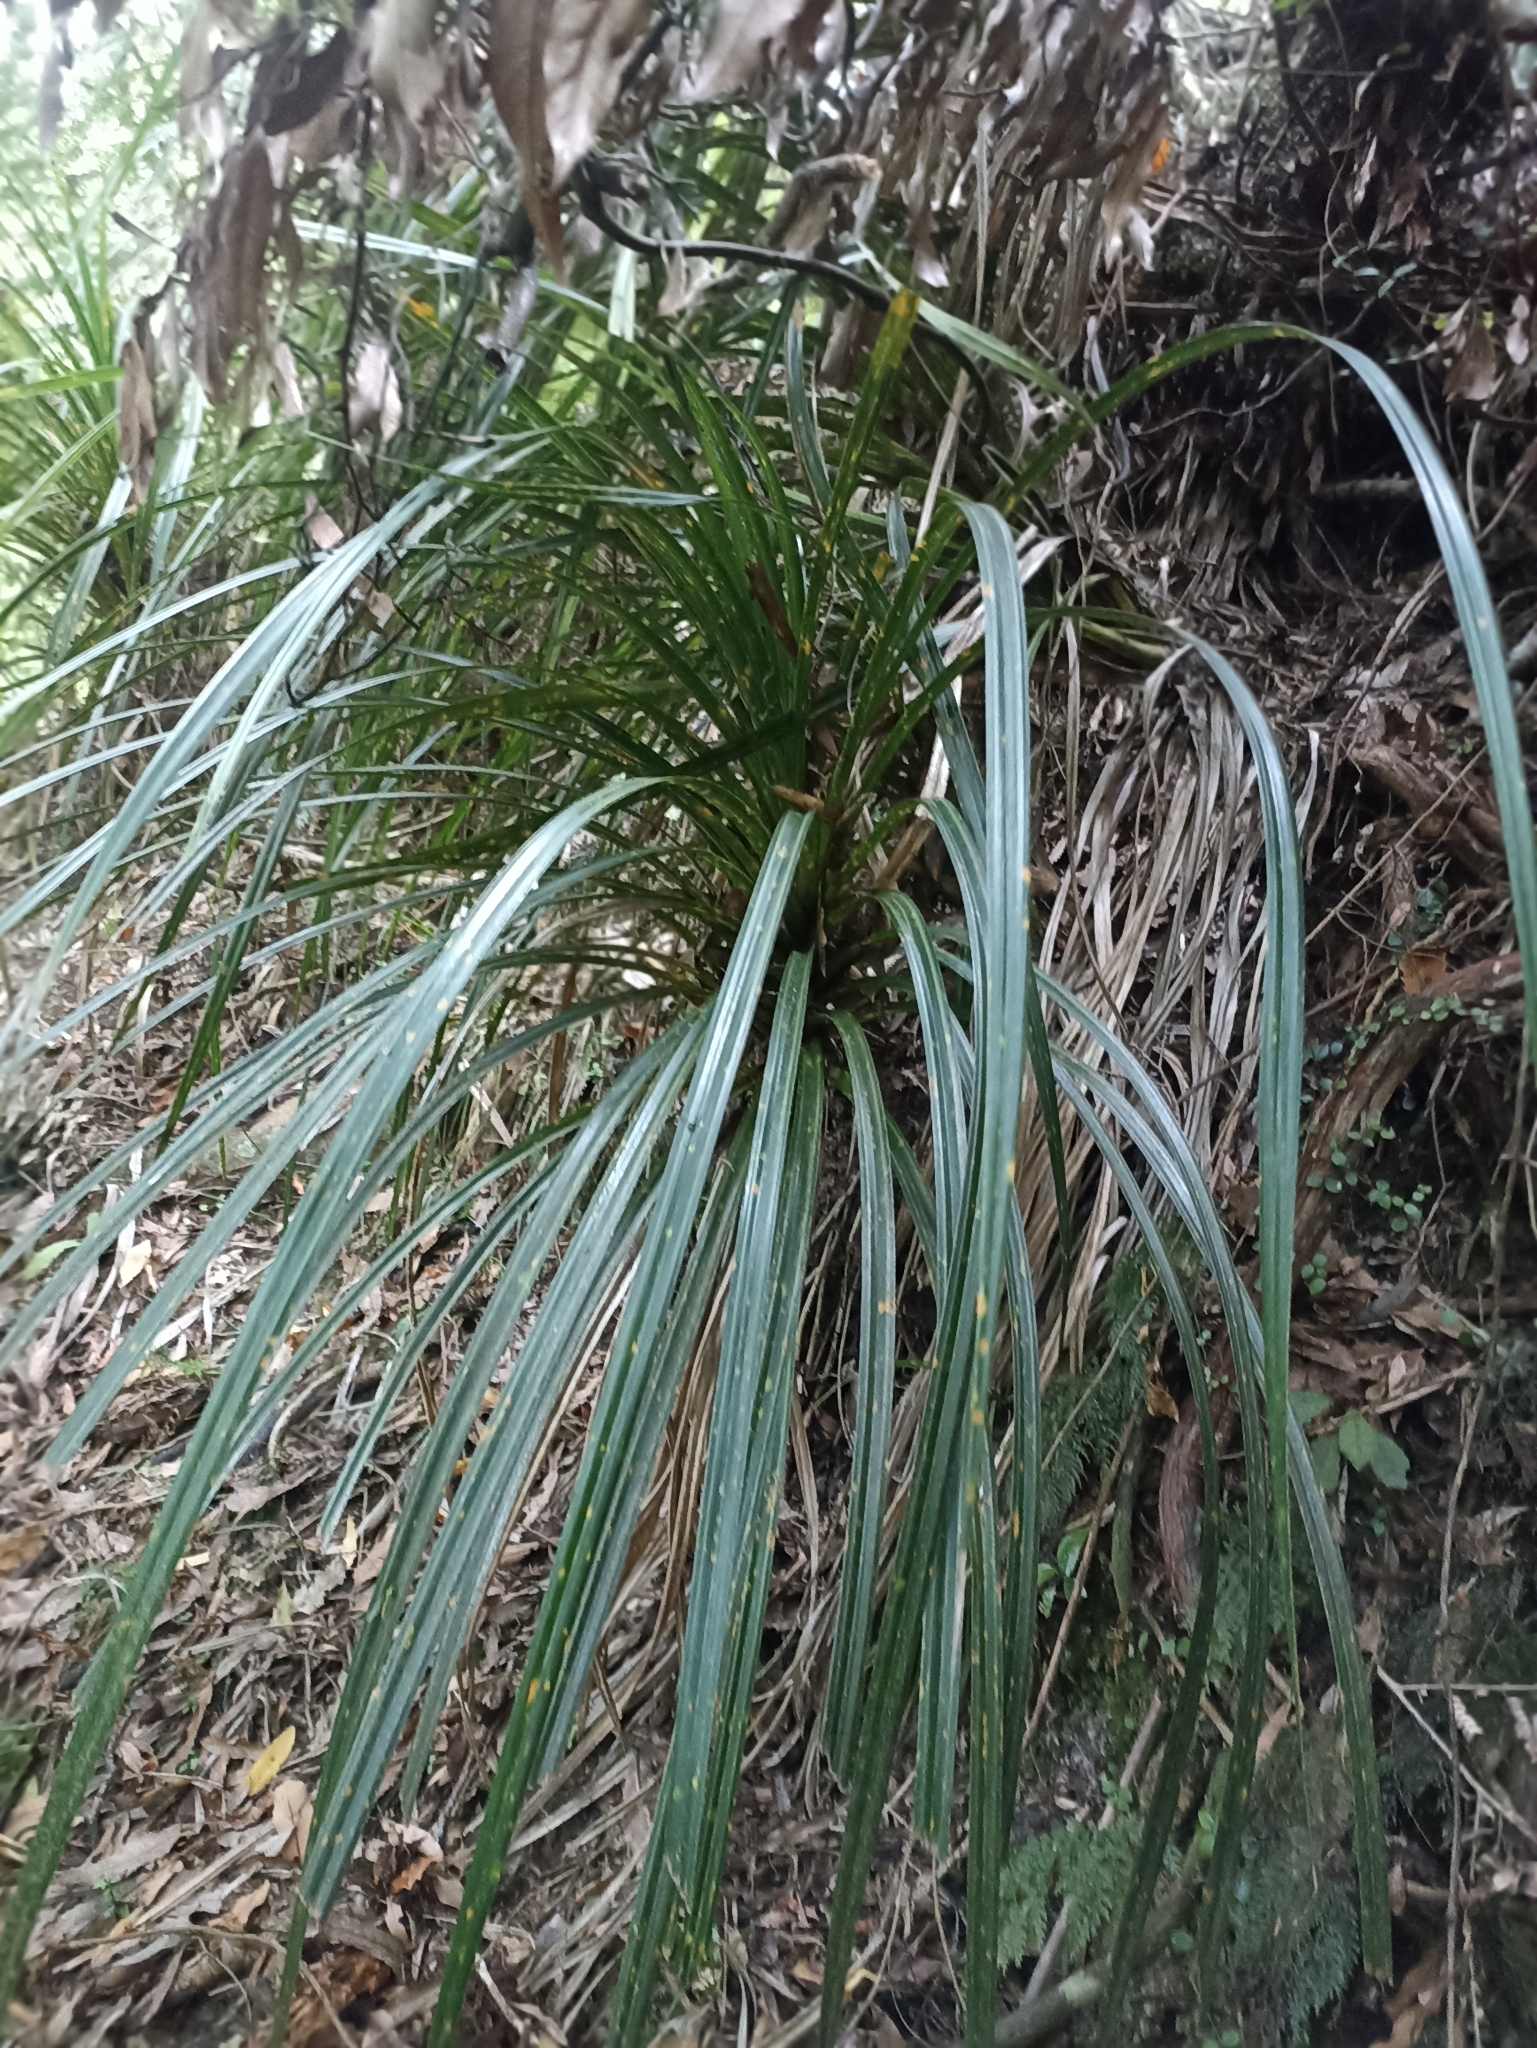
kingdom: Plantae
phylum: Tracheophyta
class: Liliopsida
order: Pandanales
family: Pandanaceae
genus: Freycinetia
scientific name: Freycinetia banksii
